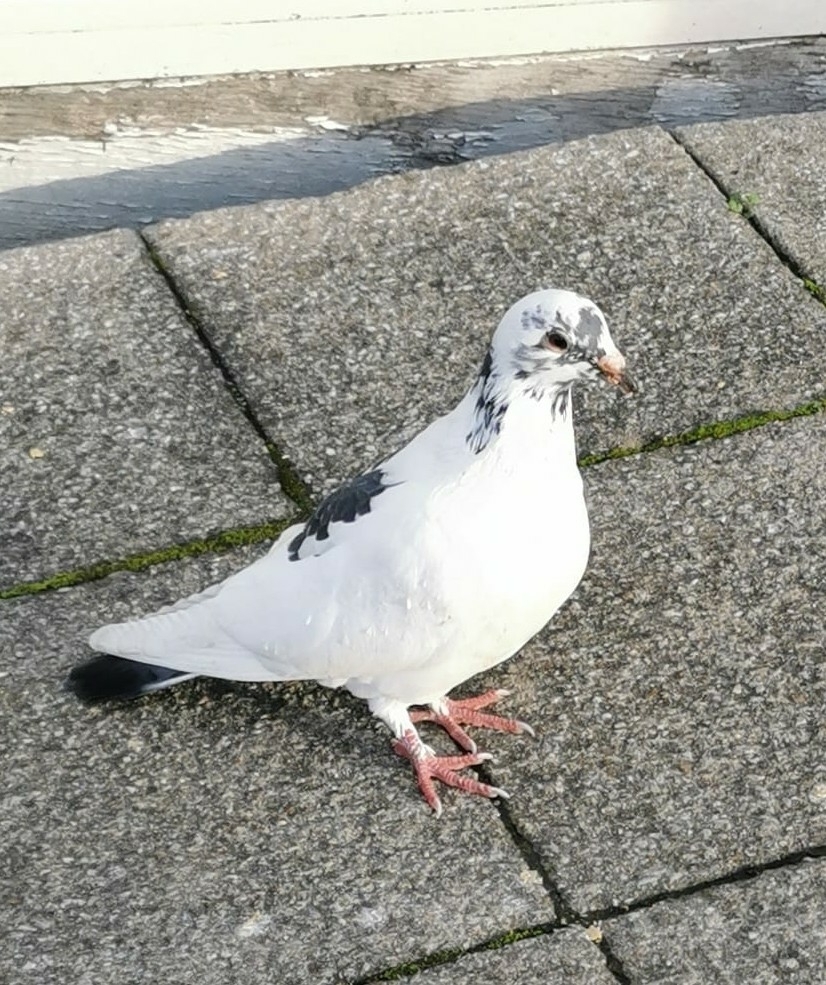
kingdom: Animalia
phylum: Chordata
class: Aves
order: Columbiformes
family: Columbidae
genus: Columba
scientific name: Columba livia
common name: Rock pigeon
